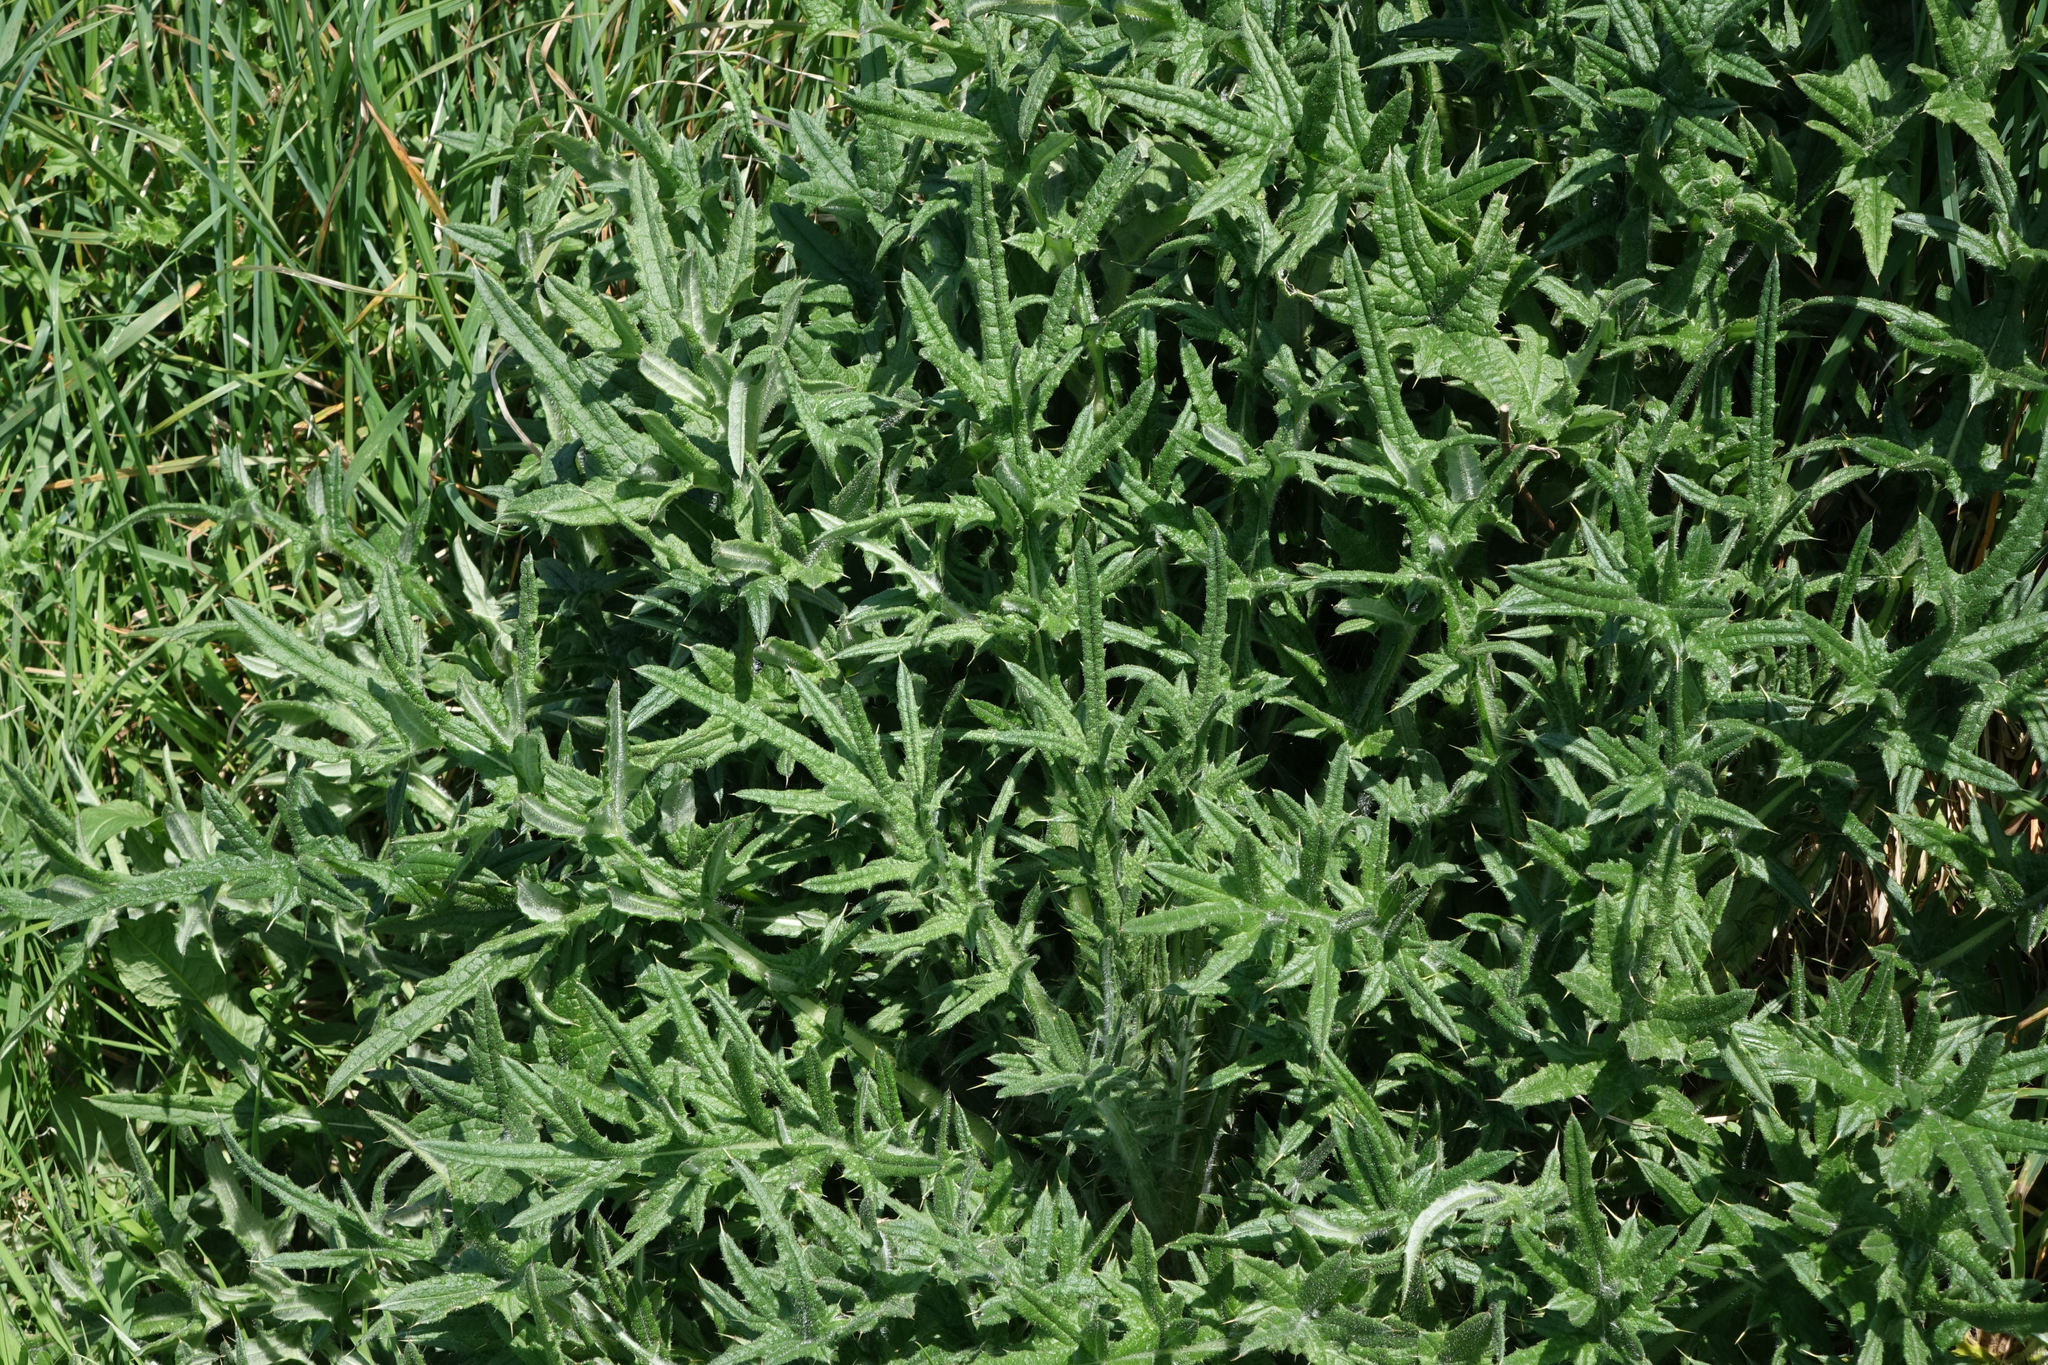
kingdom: Plantae
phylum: Tracheophyta
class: Magnoliopsida
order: Asterales
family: Asteraceae
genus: Cirsium
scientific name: Cirsium vulgare
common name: Bull thistle
